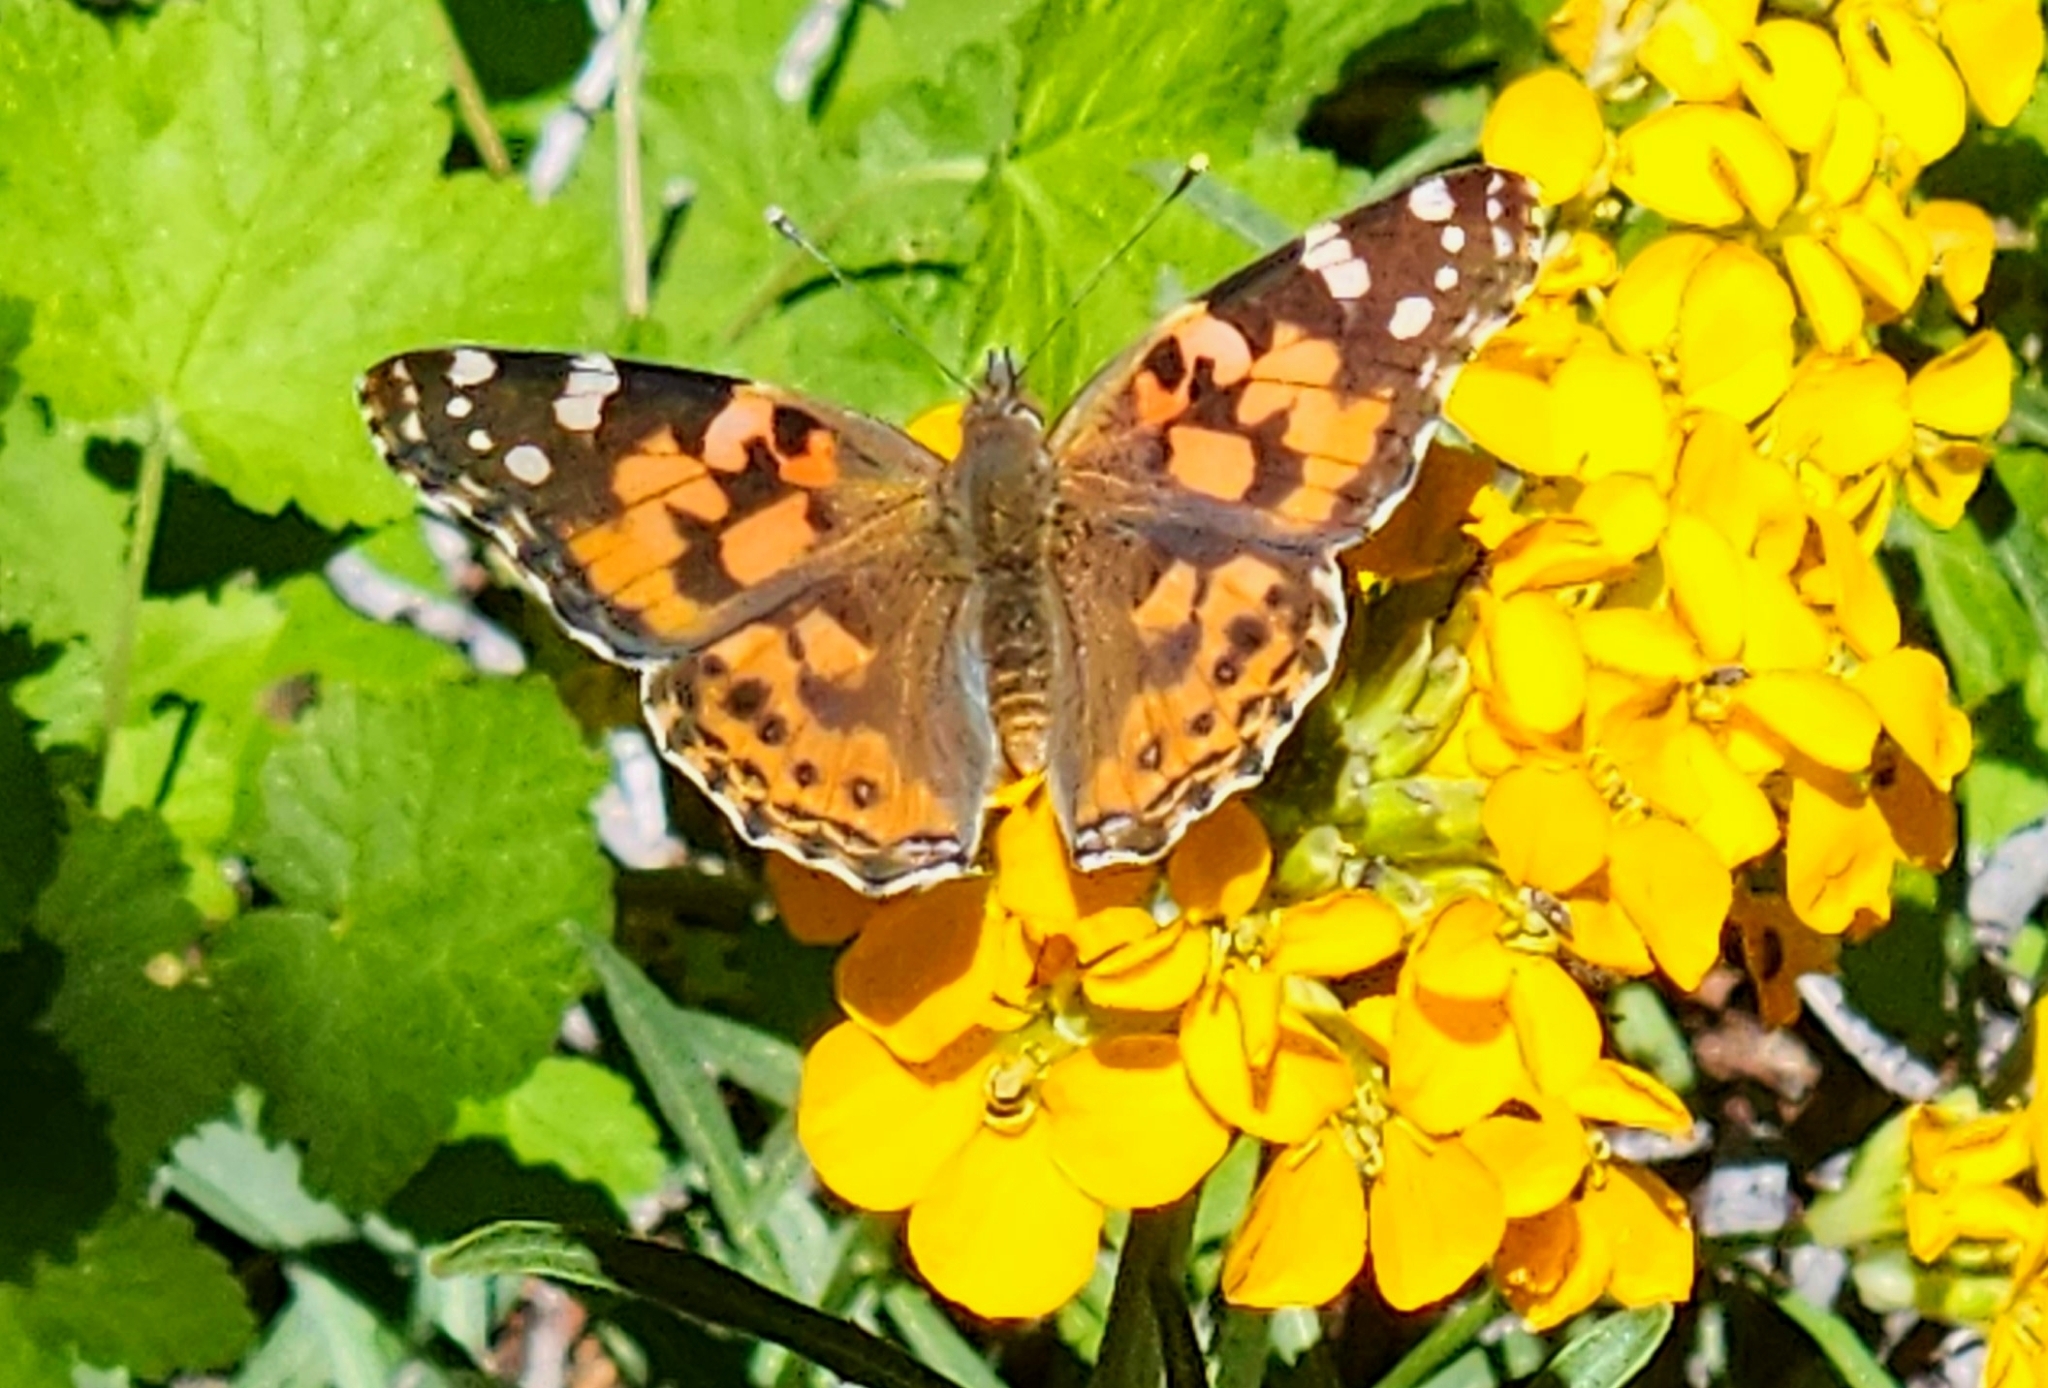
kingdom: Animalia
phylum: Arthropoda
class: Insecta
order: Lepidoptera
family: Nymphalidae
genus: Vanessa
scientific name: Vanessa cardui
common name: Painted lady
